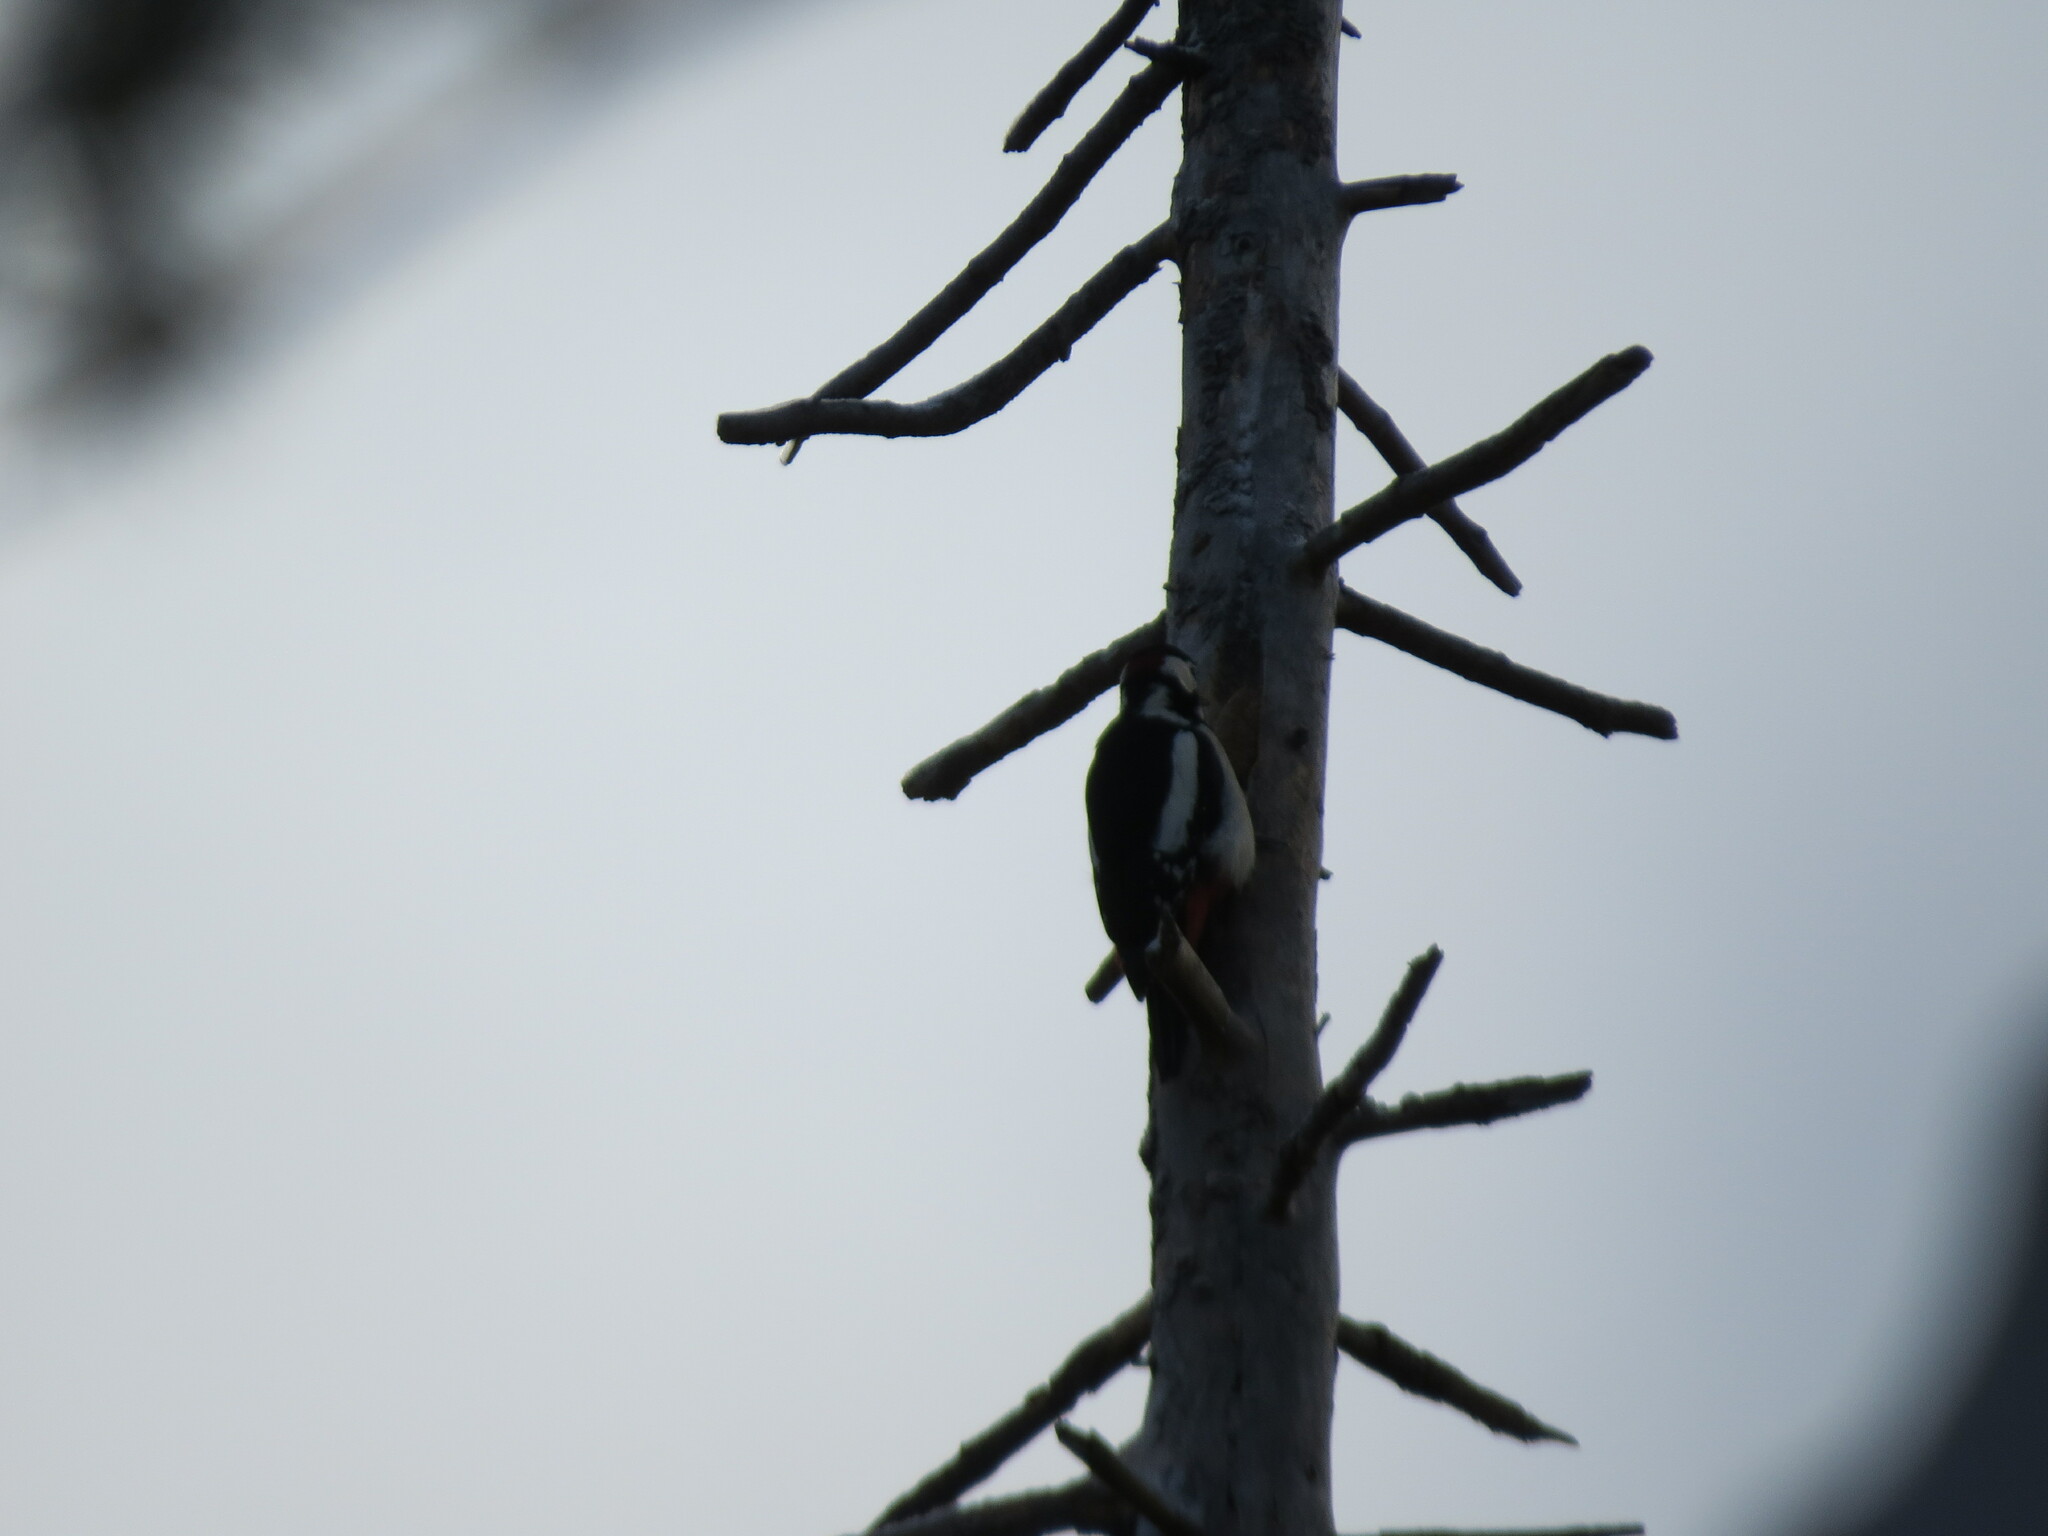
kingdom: Animalia
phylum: Chordata
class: Aves
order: Piciformes
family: Picidae
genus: Dendrocopos
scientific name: Dendrocopos major
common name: Great spotted woodpecker
